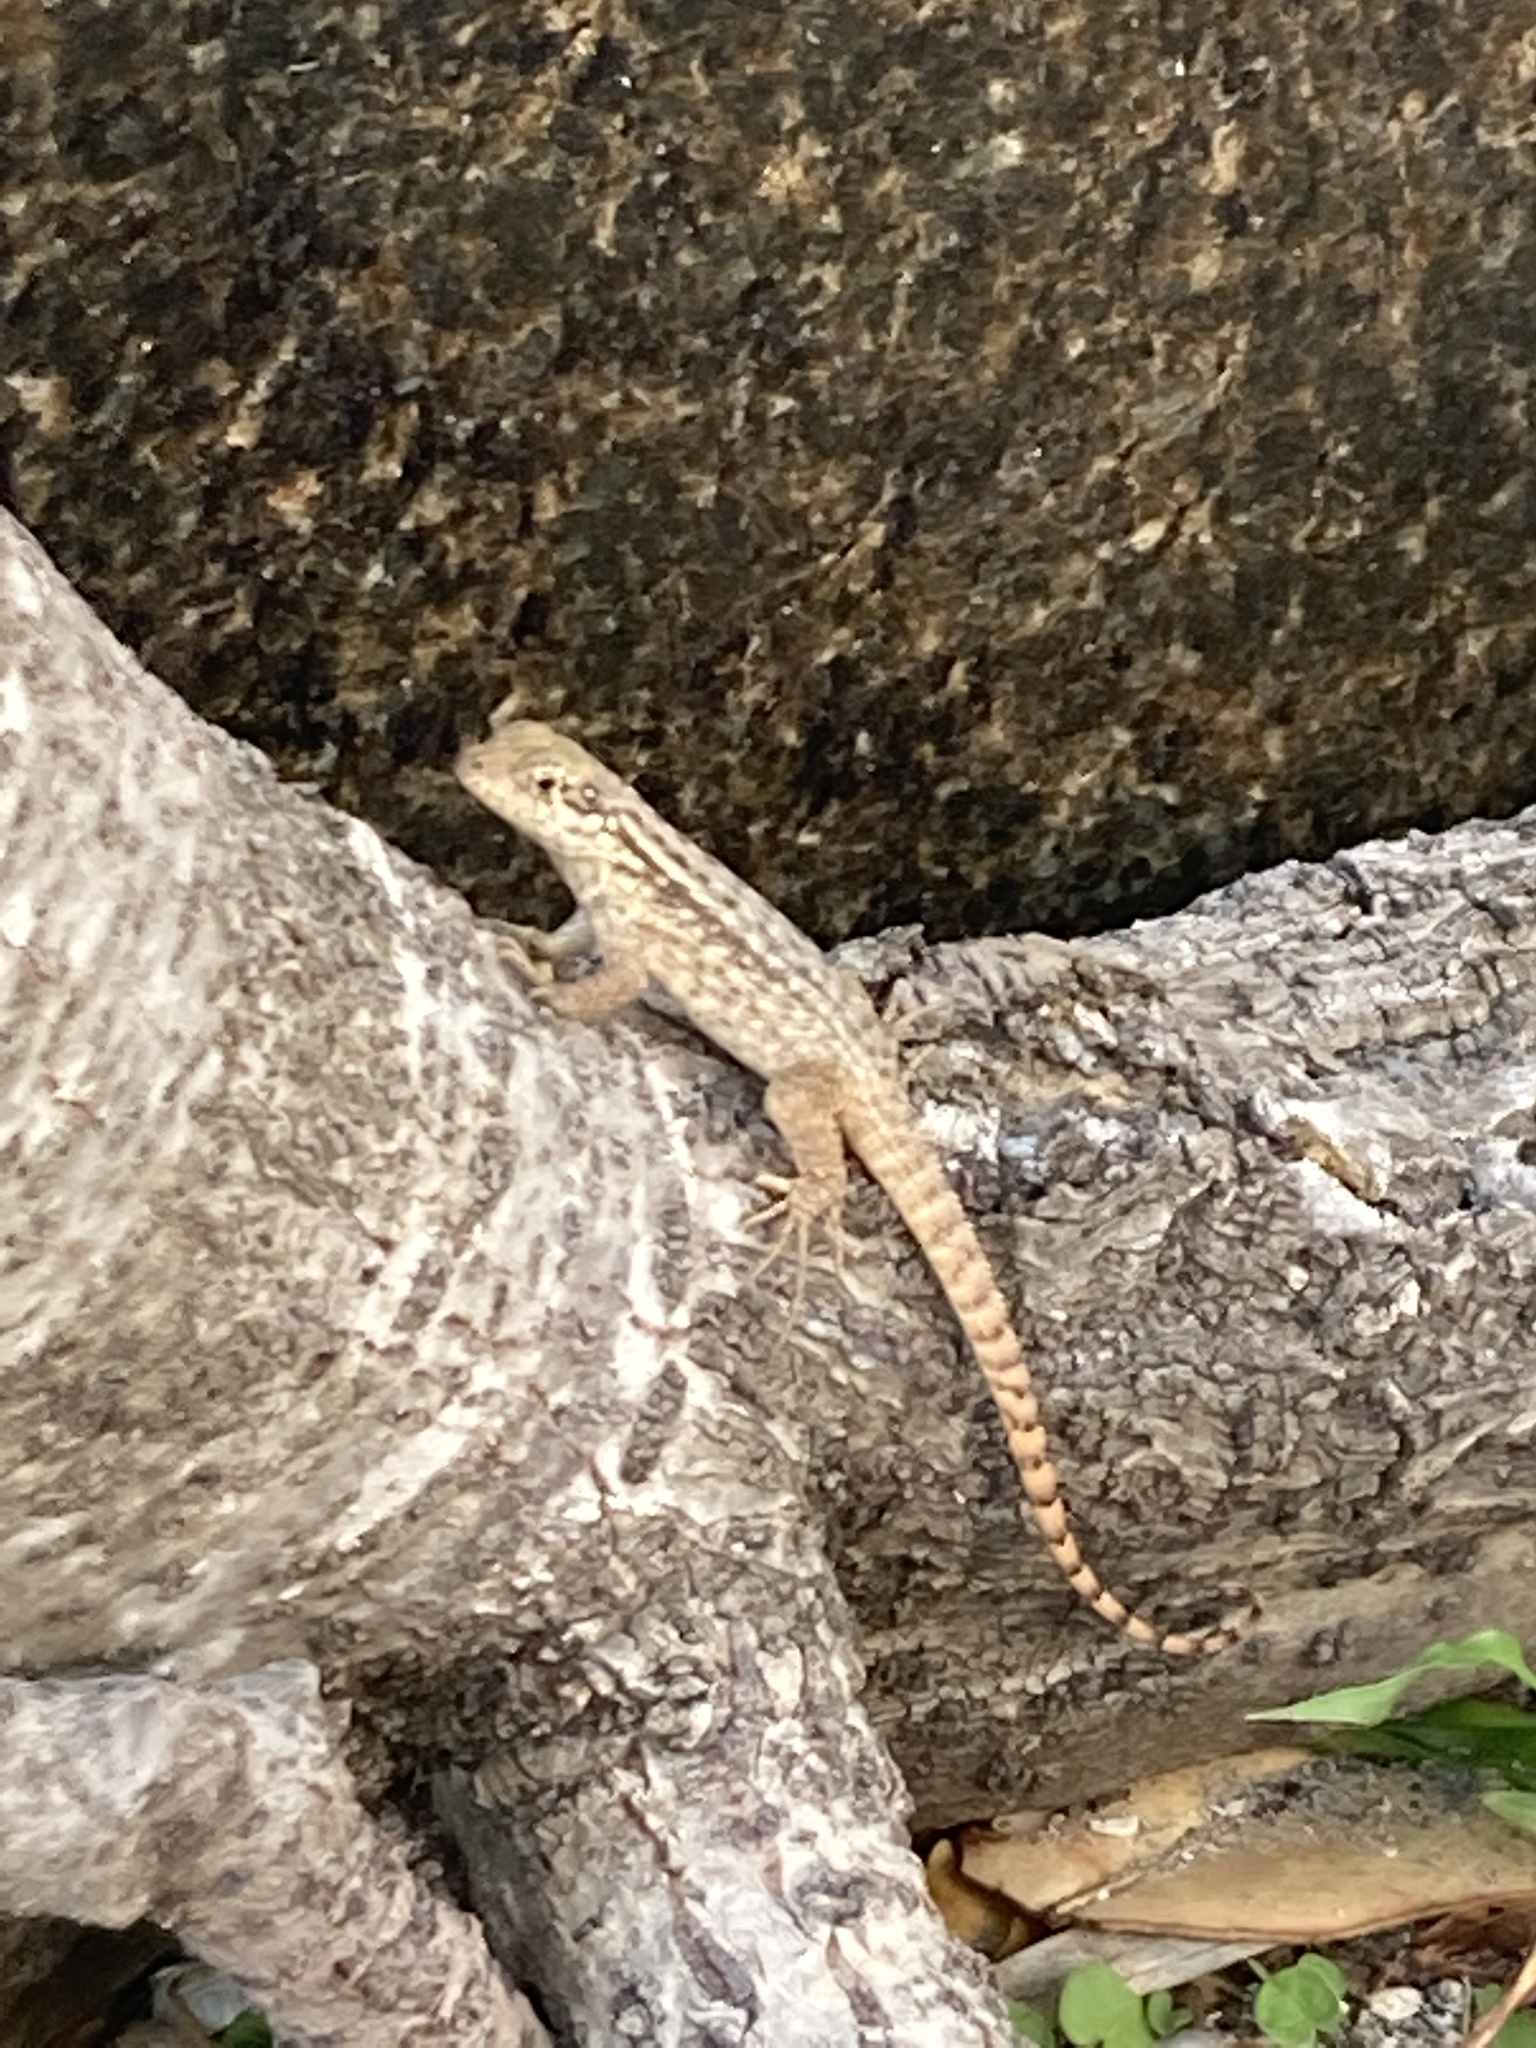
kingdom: Animalia
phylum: Chordata
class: Squamata
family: Leiocephalidae
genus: Leiocephalus
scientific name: Leiocephalus carinatus
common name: Northern curly-tailed lizard
